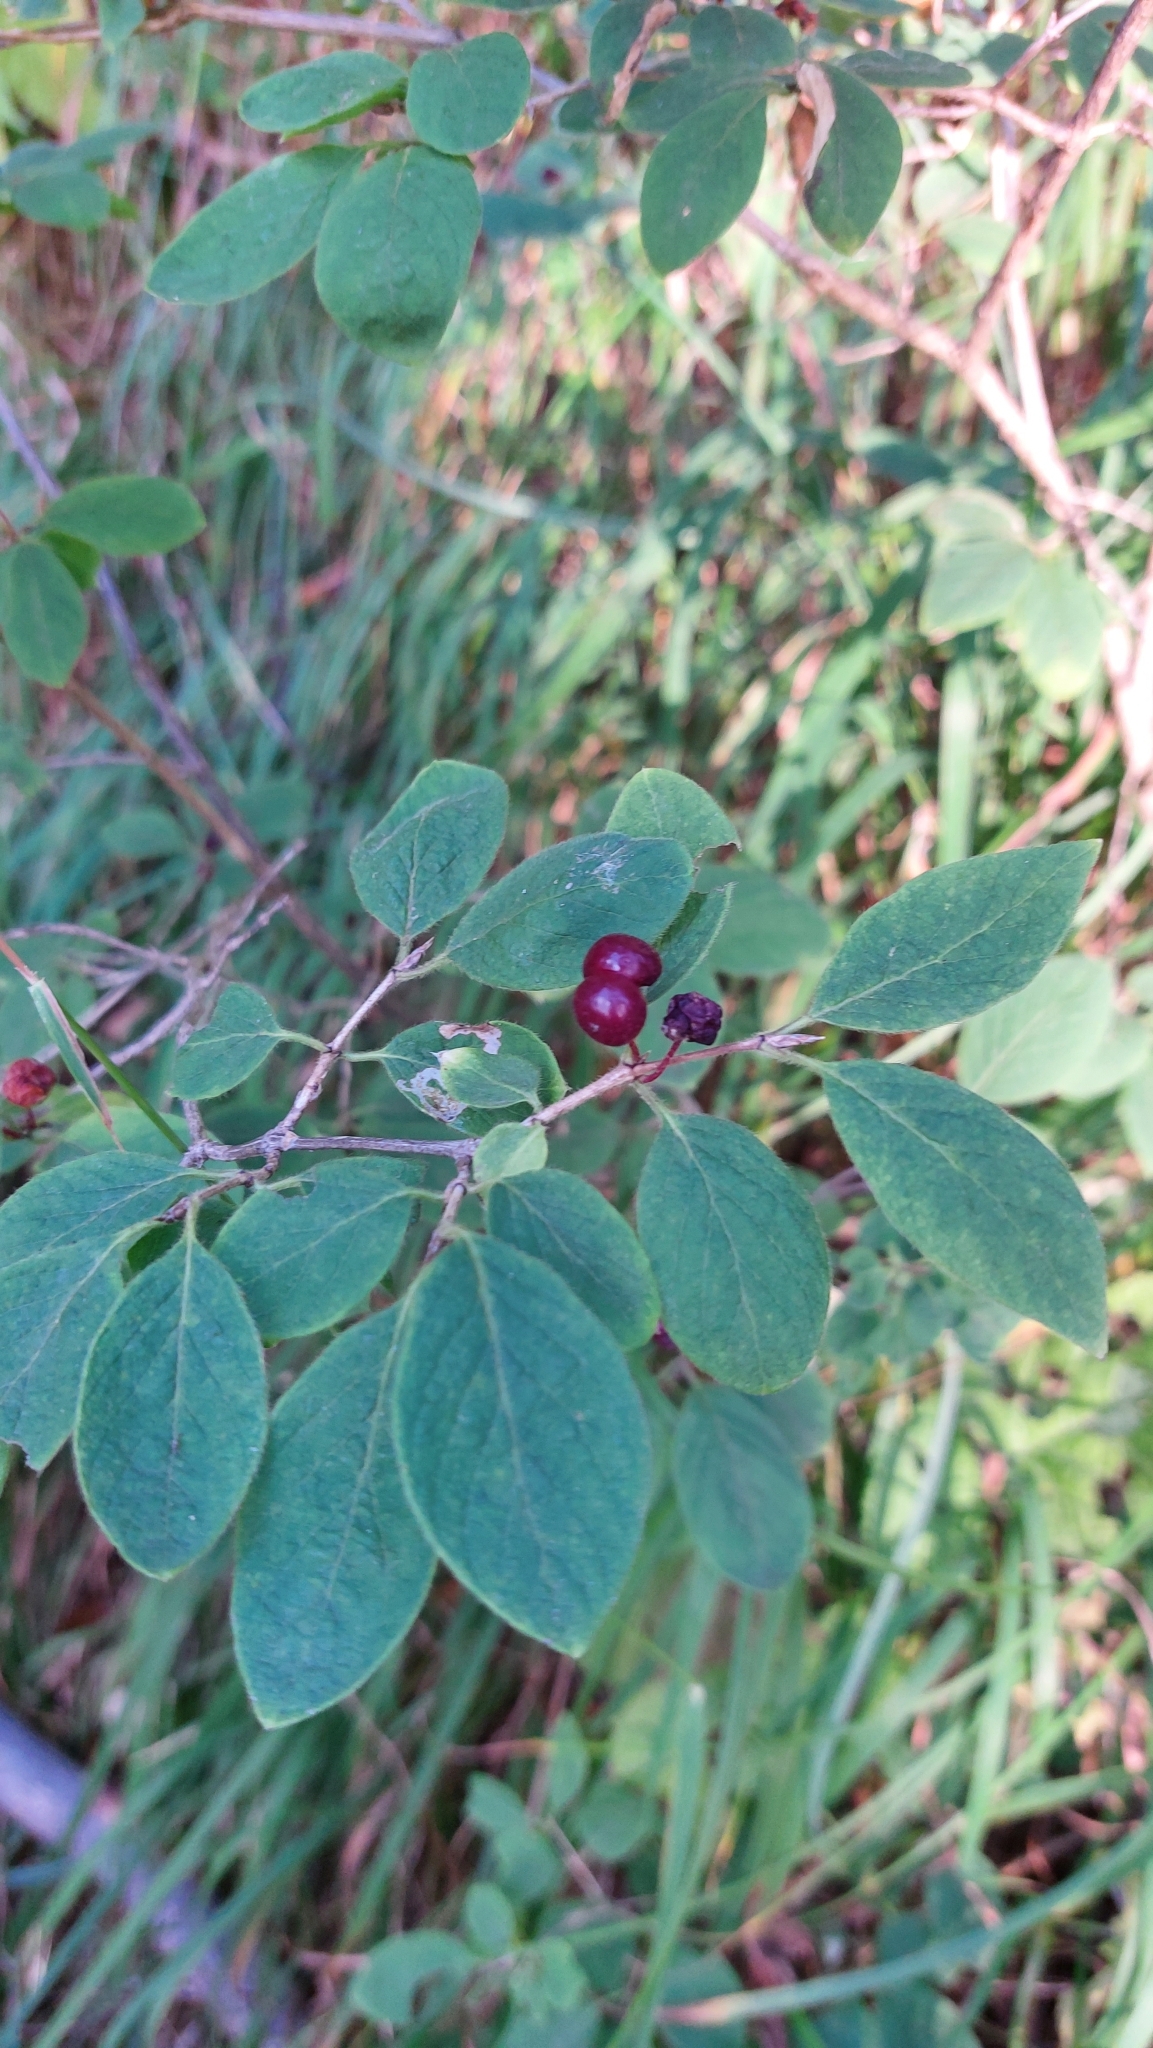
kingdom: Plantae
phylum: Tracheophyta
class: Magnoliopsida
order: Dipsacales
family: Caprifoliaceae
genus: Lonicera
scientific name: Lonicera xylosteum
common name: Fly honeysuckle
